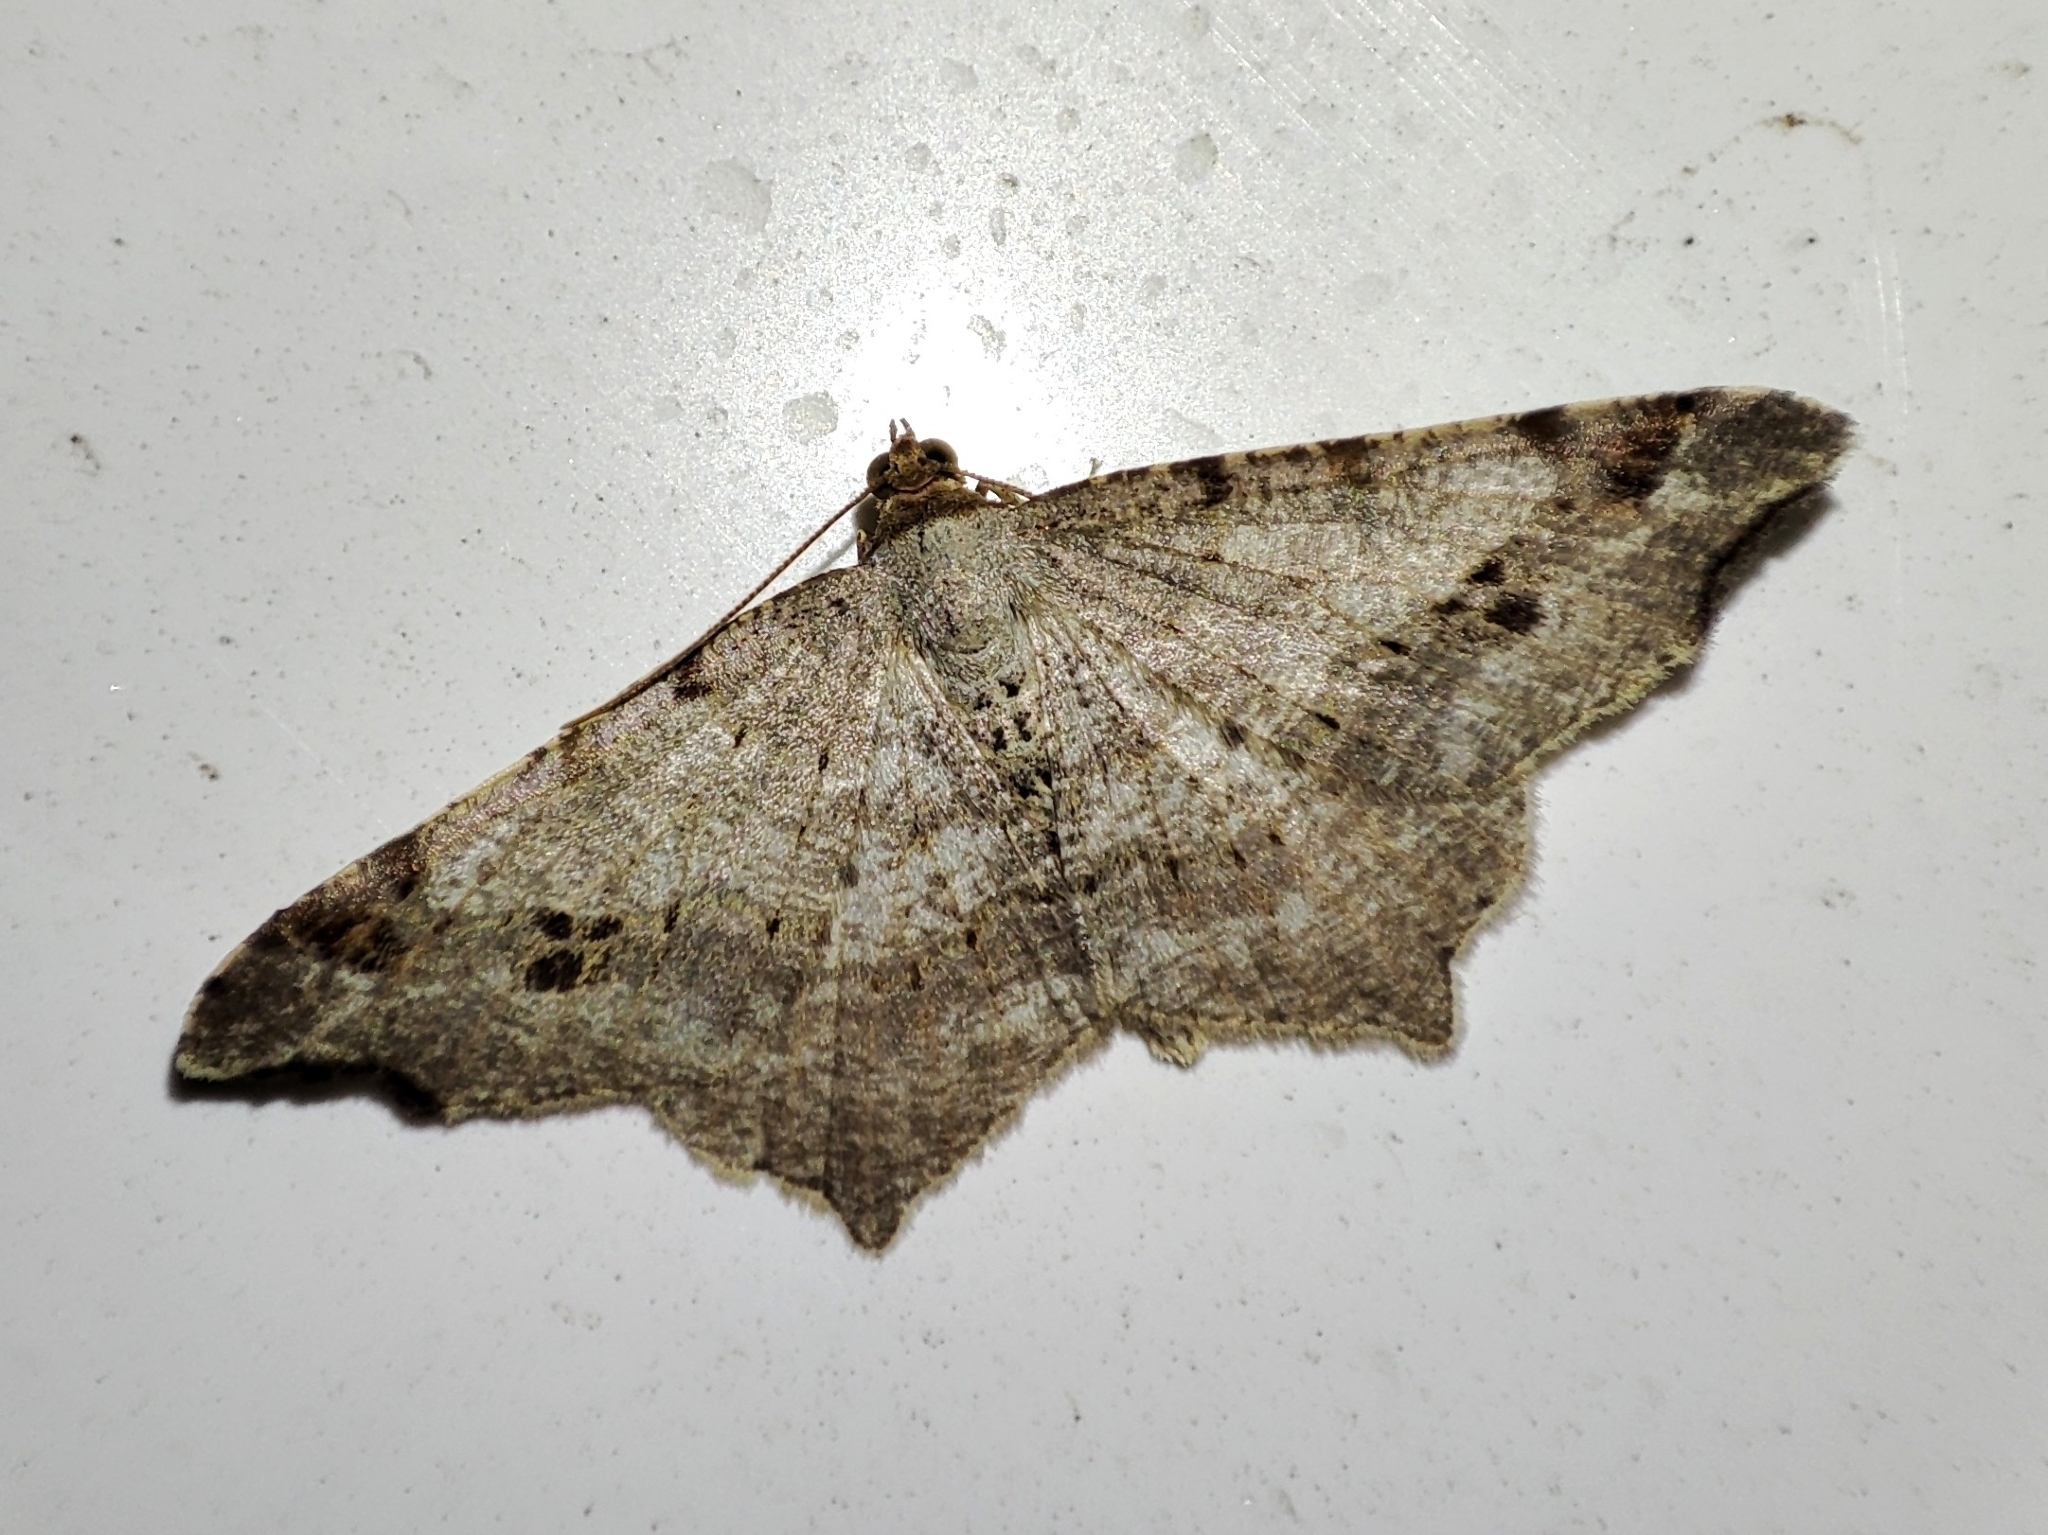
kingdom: Animalia
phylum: Arthropoda
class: Insecta
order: Lepidoptera
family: Geometridae
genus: Macaria
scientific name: Macaria alternata
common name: Sharp-angled peacock
